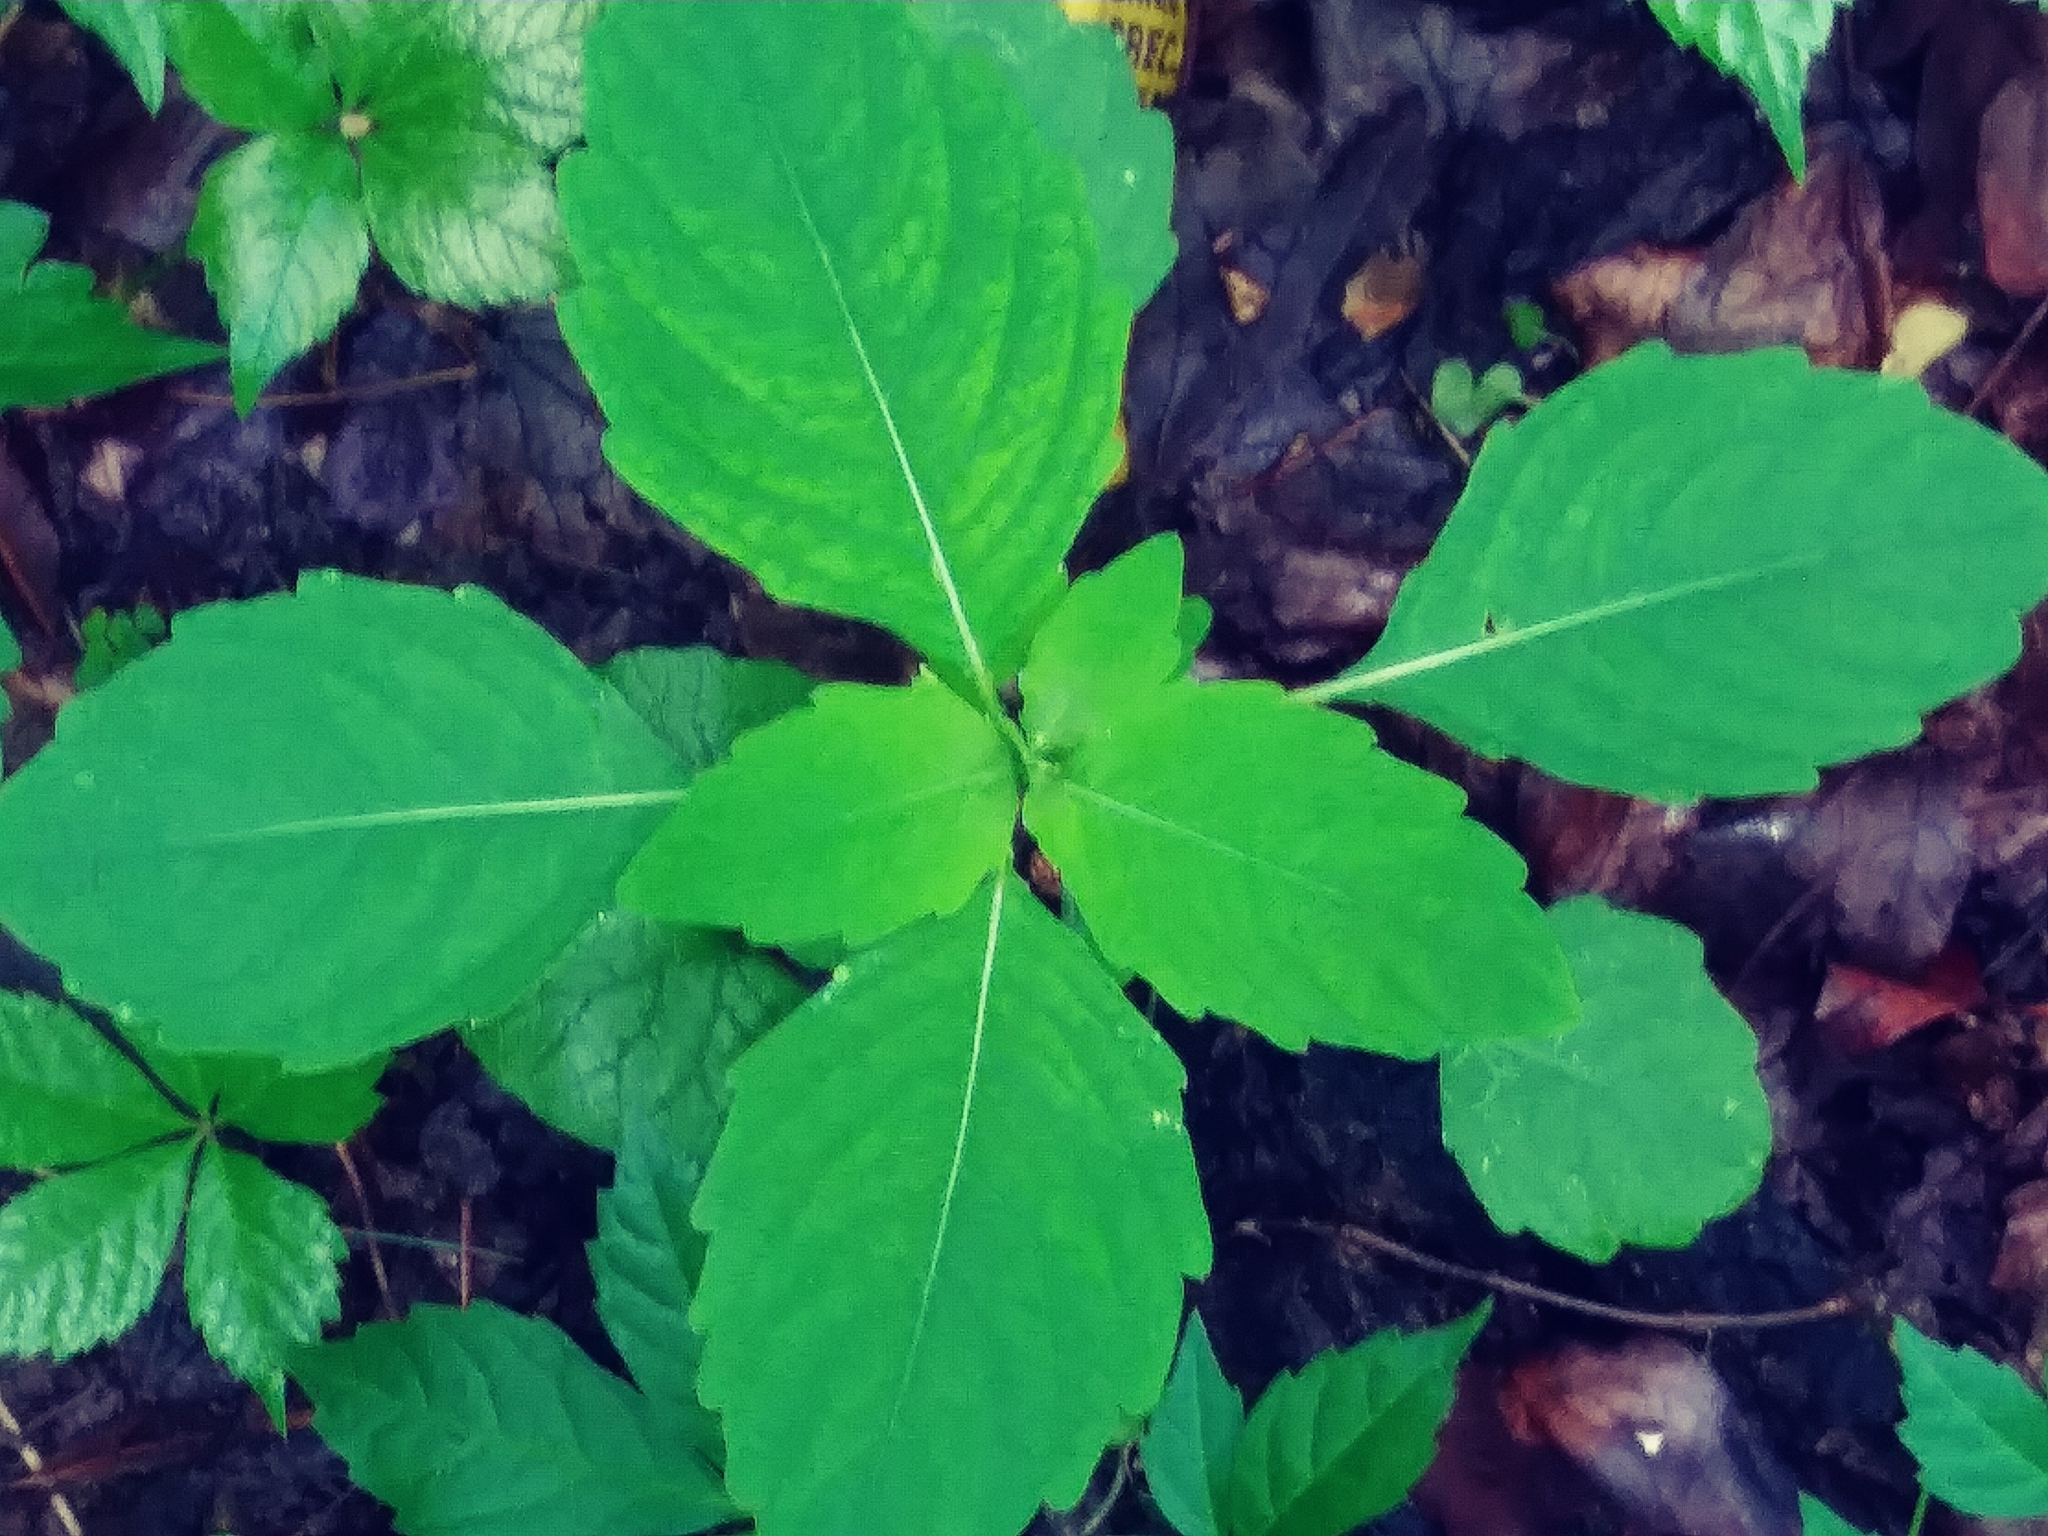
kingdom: Plantae
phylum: Tracheophyta
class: Magnoliopsida
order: Ericales
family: Balsaminaceae
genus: Impatiens
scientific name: Impatiens capensis
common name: Orange balsam
